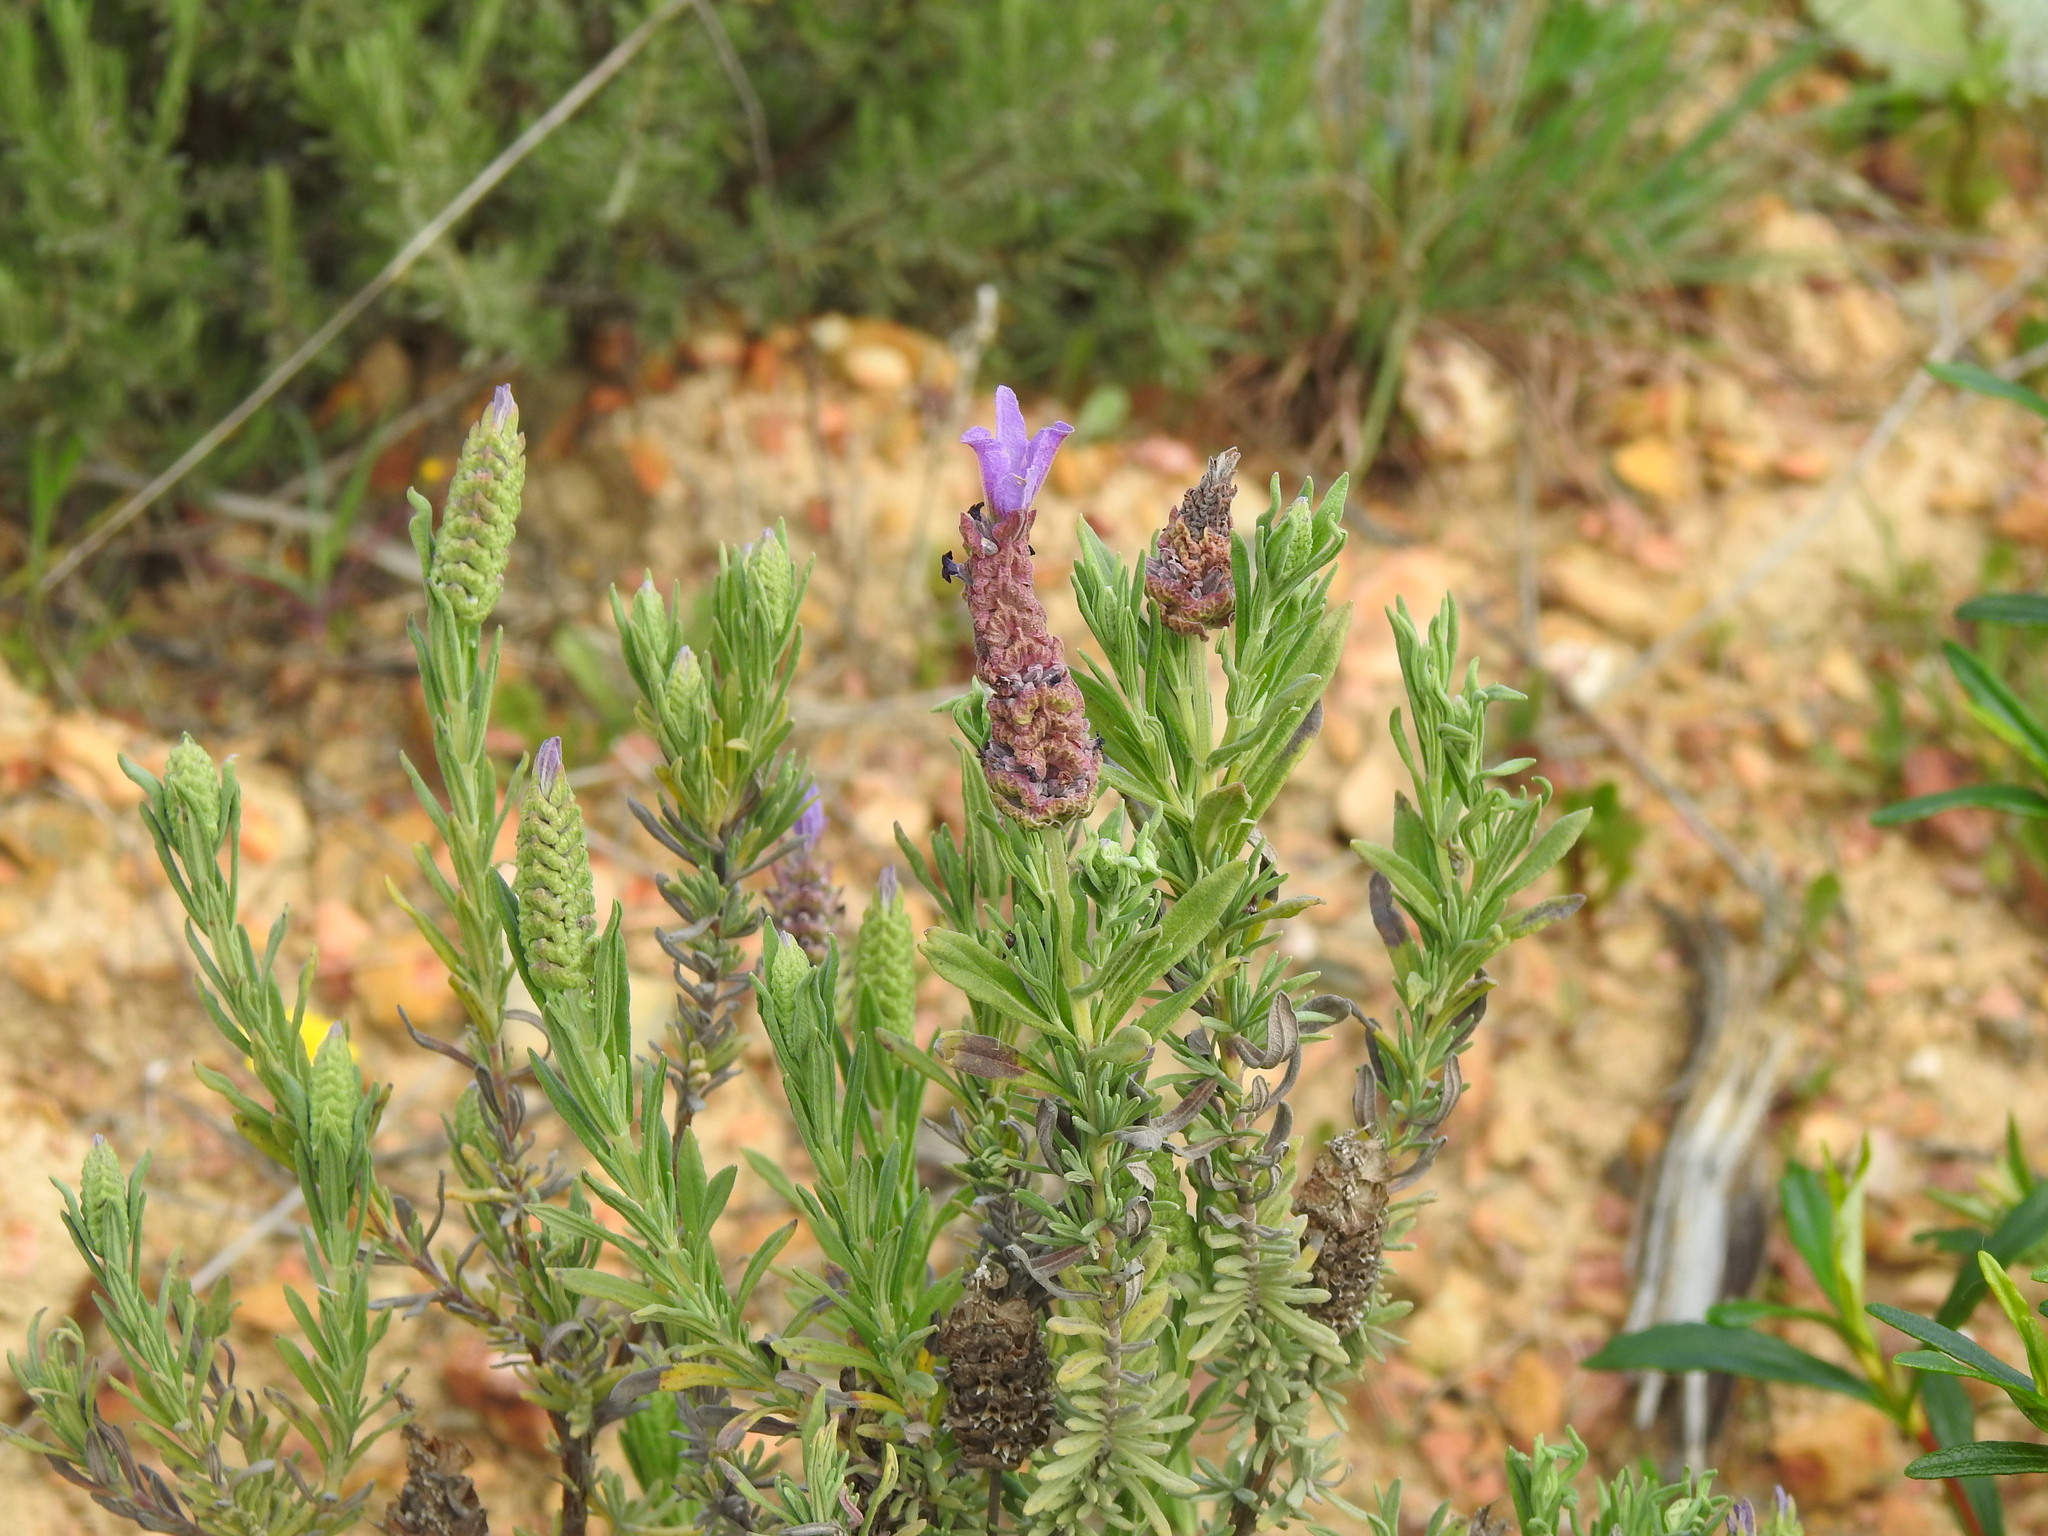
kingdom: Plantae
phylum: Tracheophyta
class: Magnoliopsida
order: Lamiales
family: Lamiaceae
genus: Lavandula
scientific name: Lavandula stoechas
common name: French lavender
